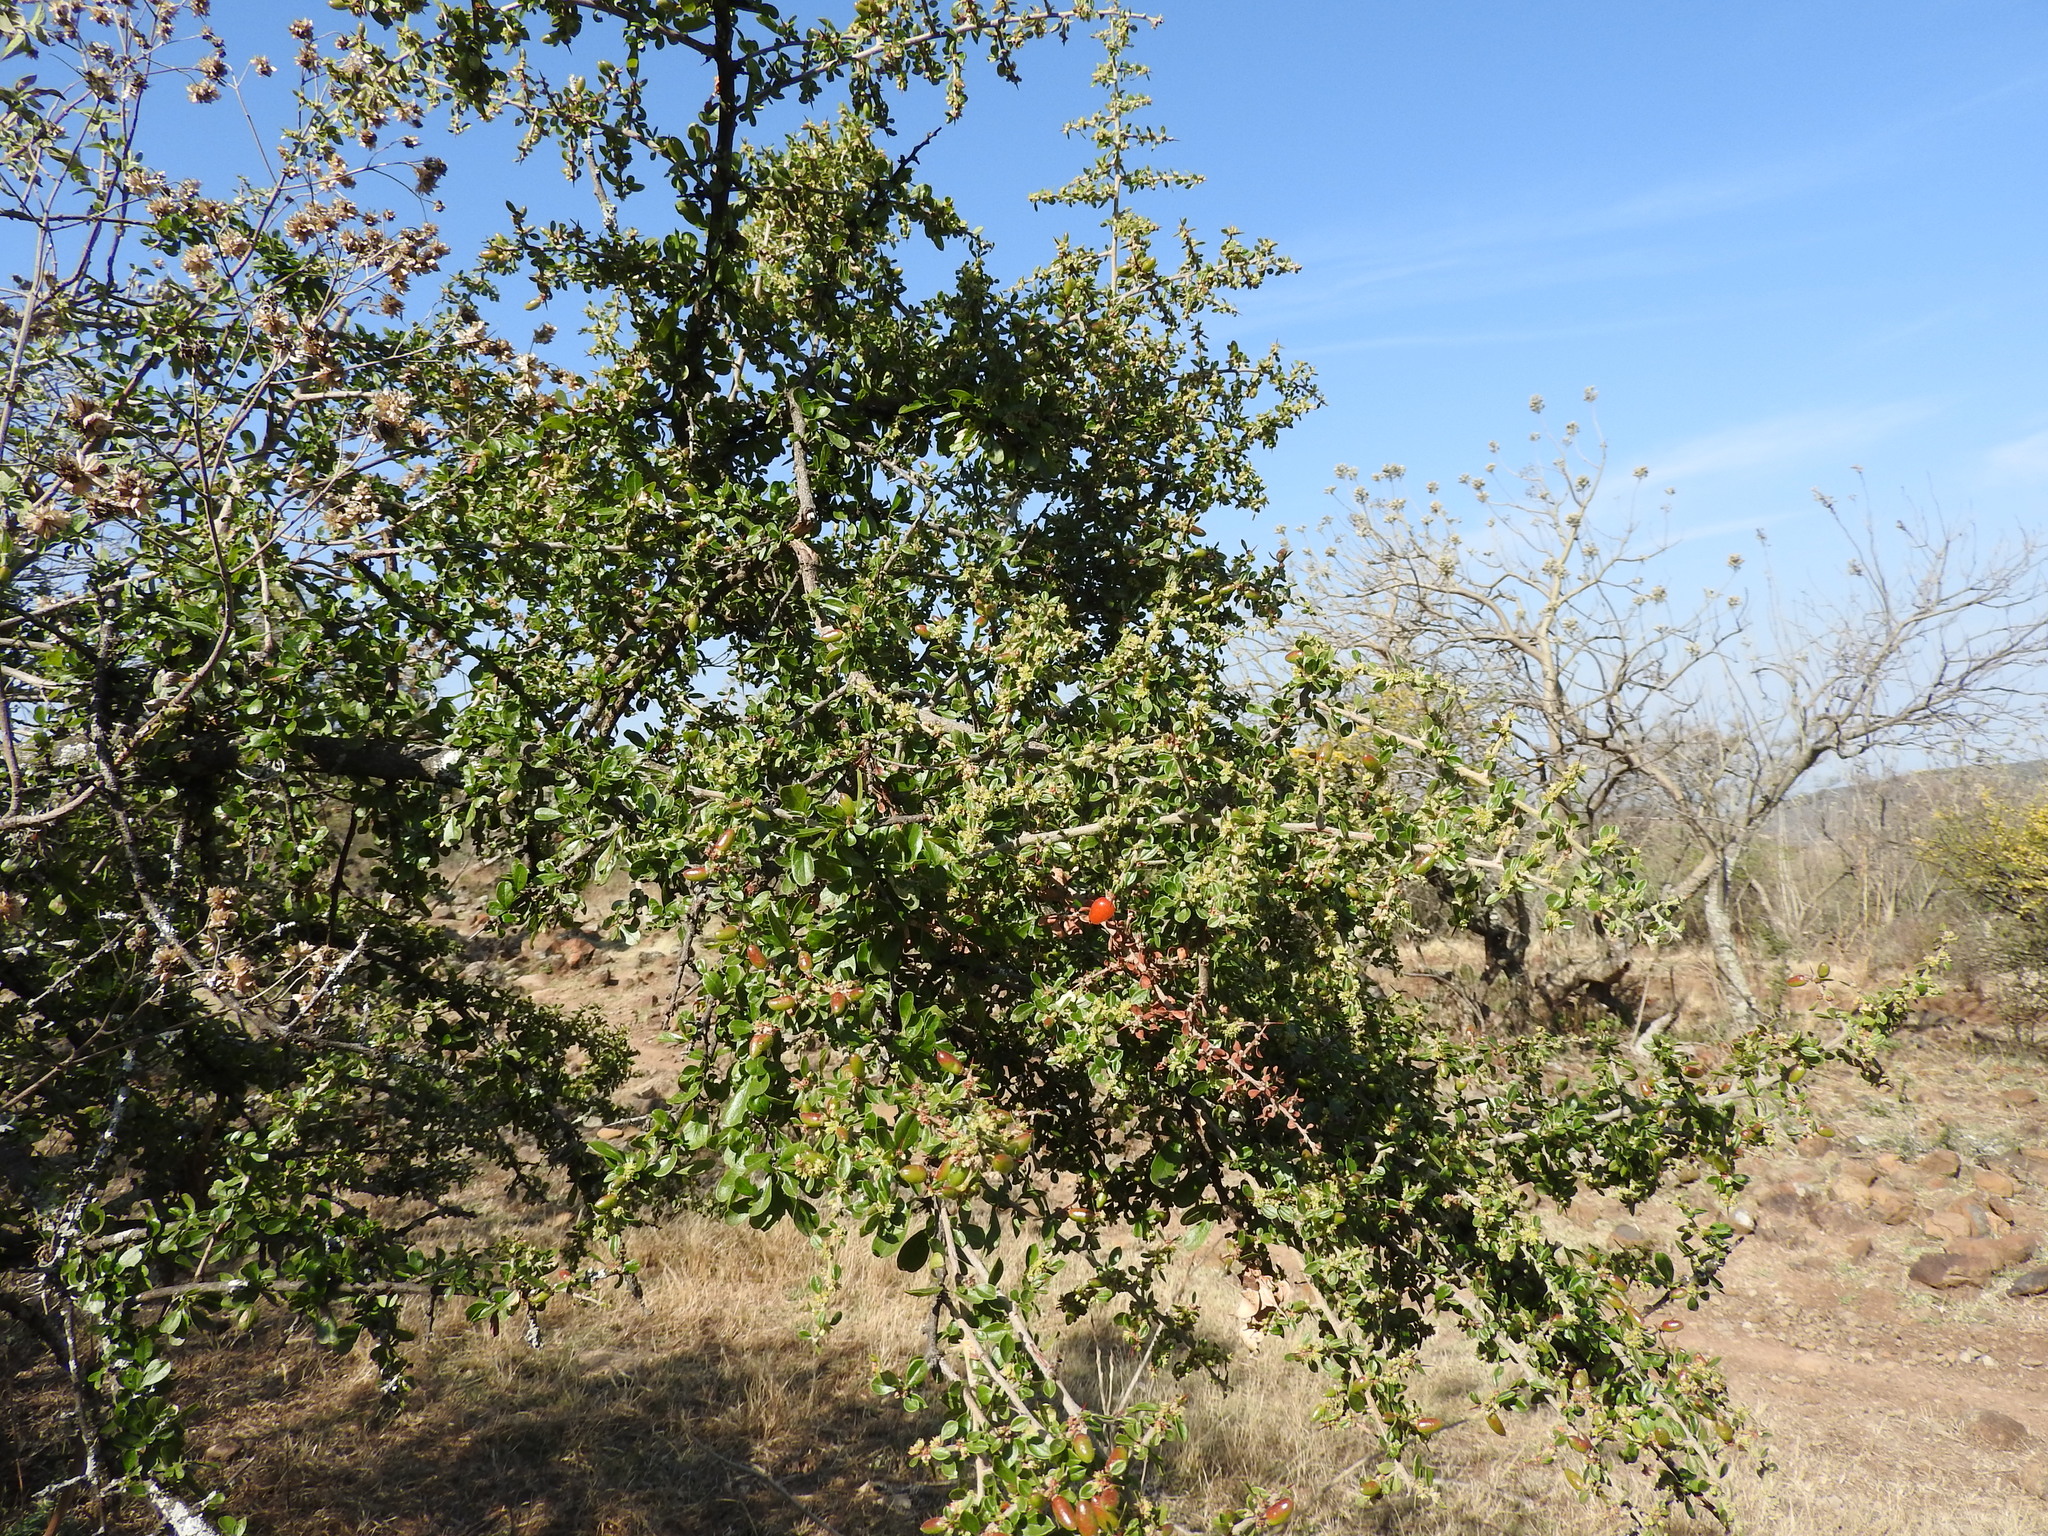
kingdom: Plantae
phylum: Tracheophyta
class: Magnoliopsida
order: Rosales
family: Rhamnaceae
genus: Condalia
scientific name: Condalia velutina
